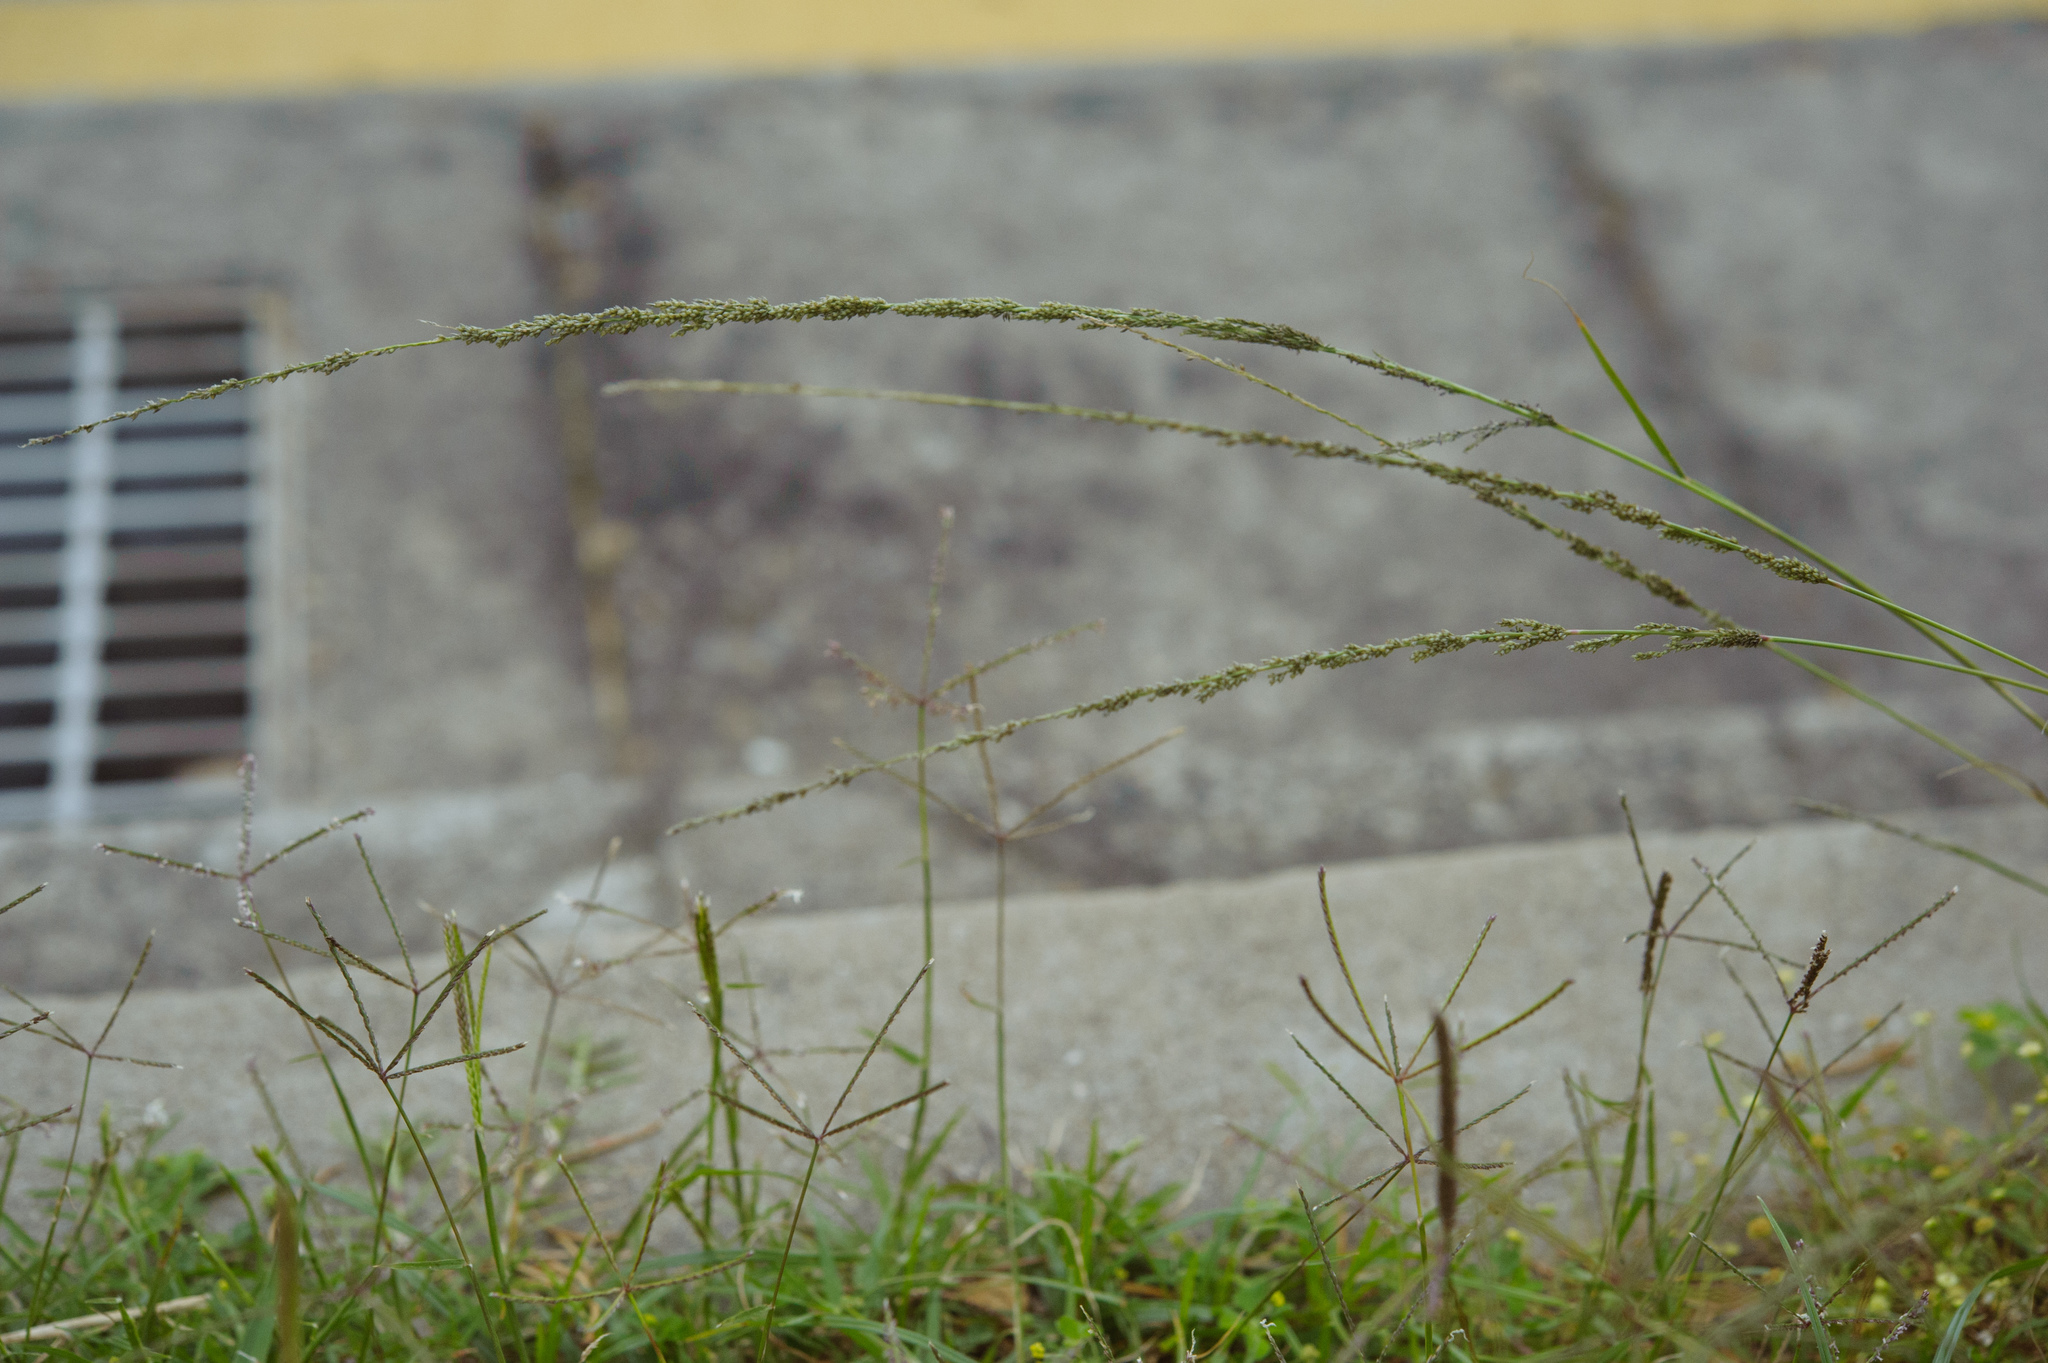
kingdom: Plantae
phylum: Tracheophyta
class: Liliopsida
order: Poales
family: Poaceae
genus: Sporobolus
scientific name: Sporobolus indicus
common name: Smut grass
